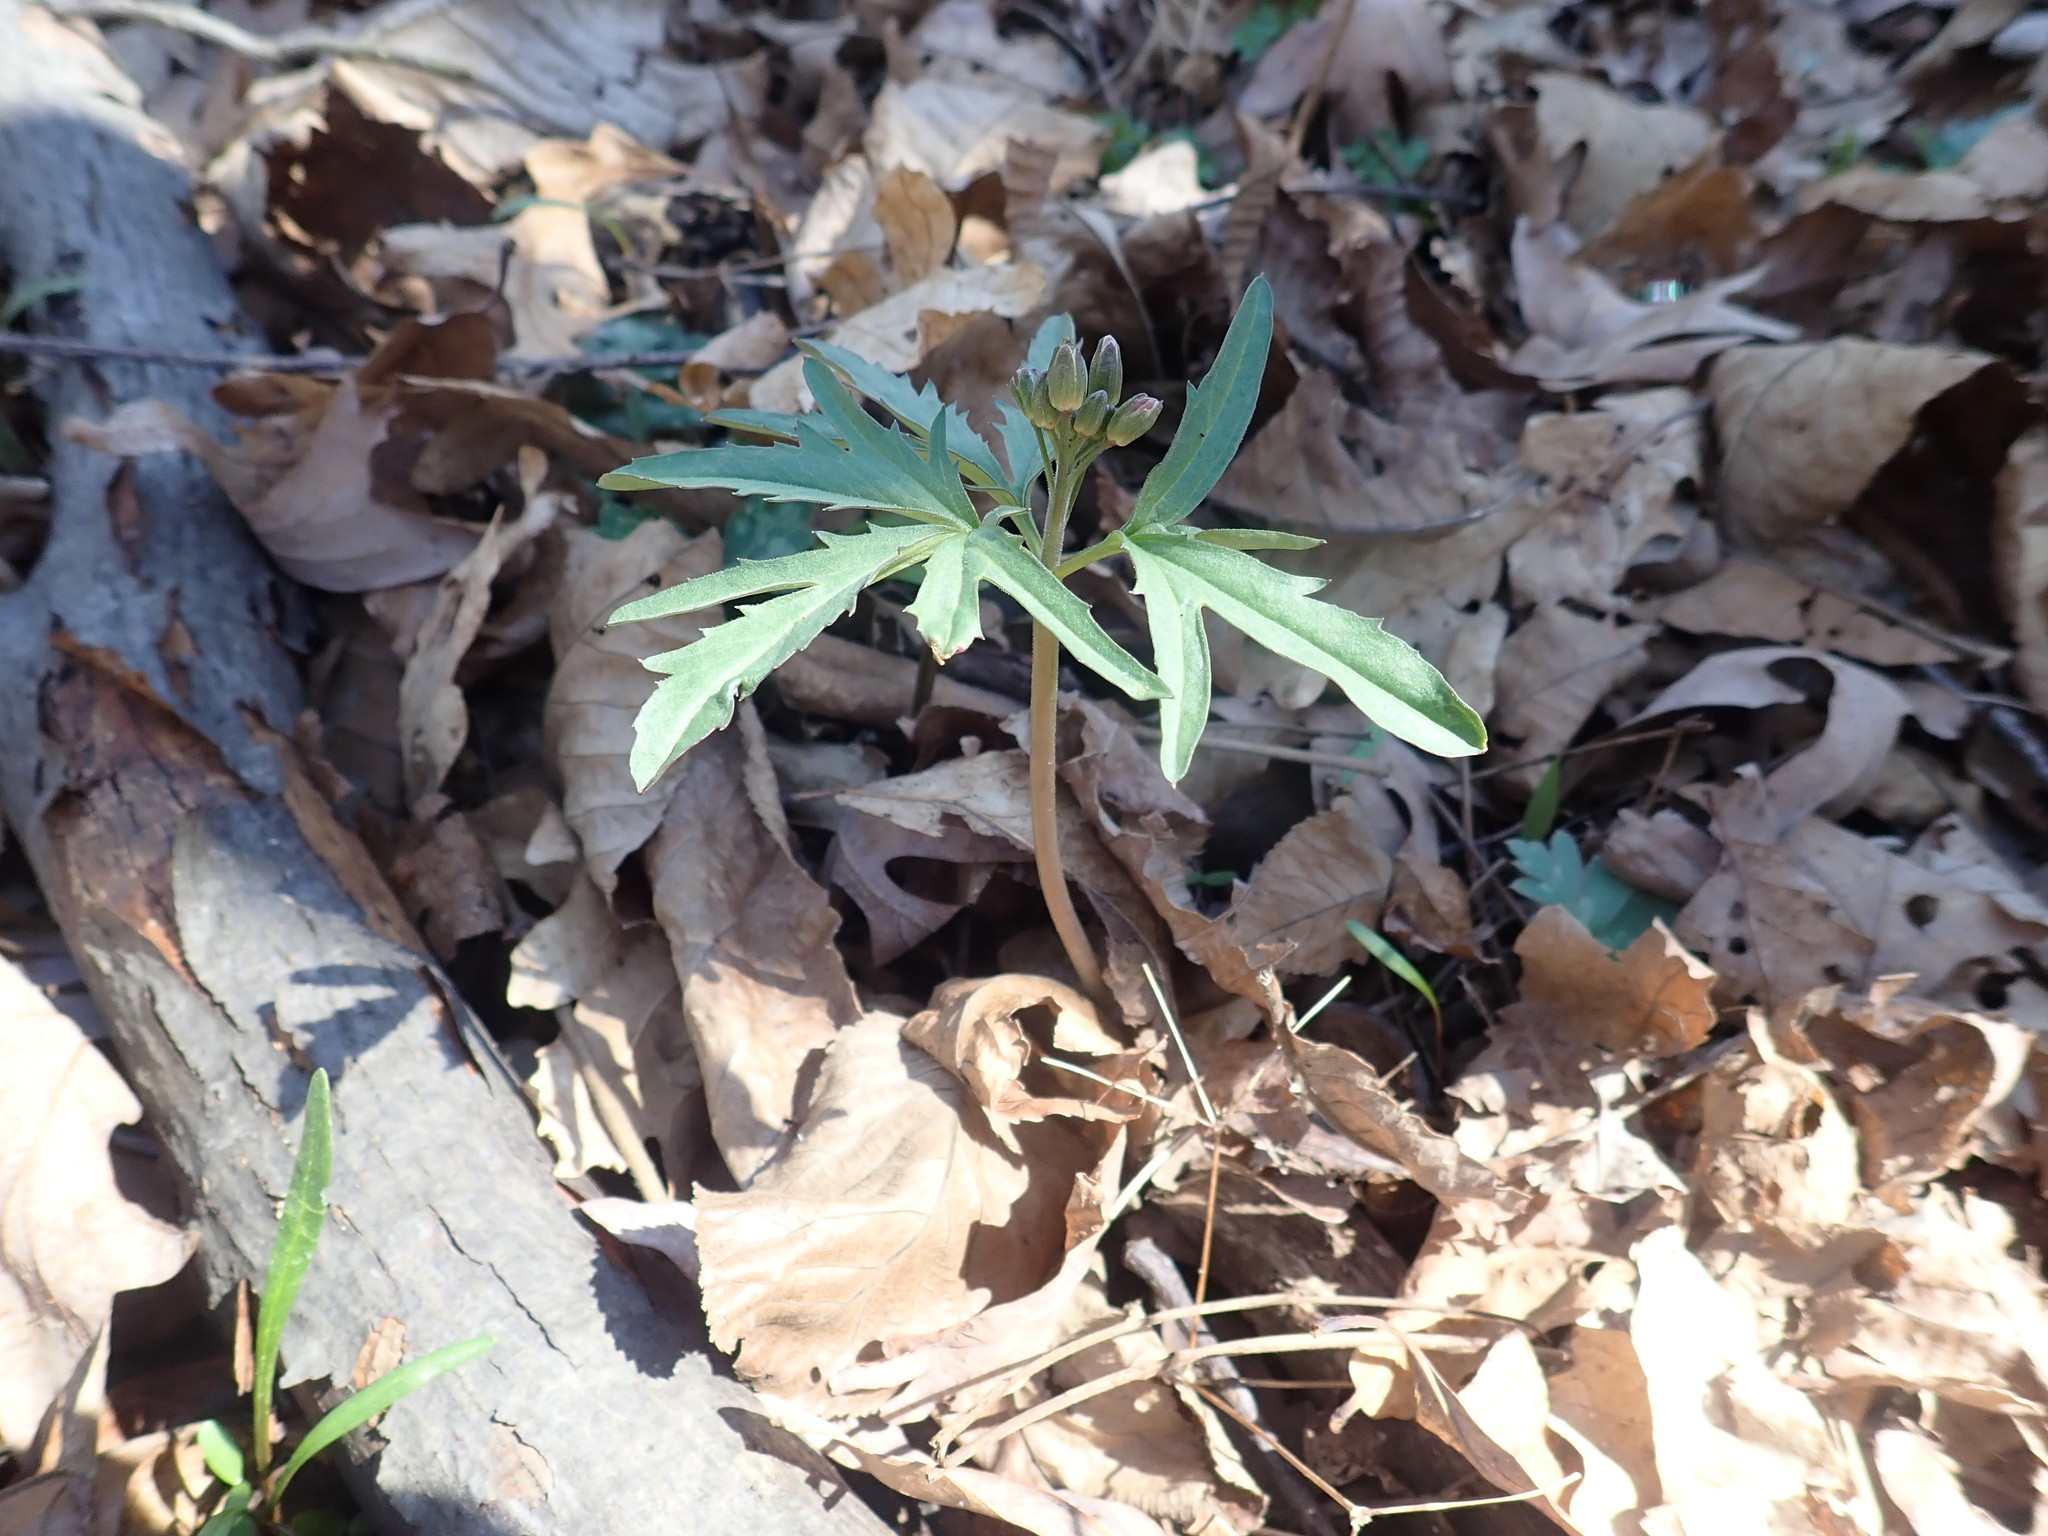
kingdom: Plantae
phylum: Tracheophyta
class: Magnoliopsida
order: Brassicales
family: Brassicaceae
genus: Cardamine
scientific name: Cardamine concatenata
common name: Cut-leaf toothcup
